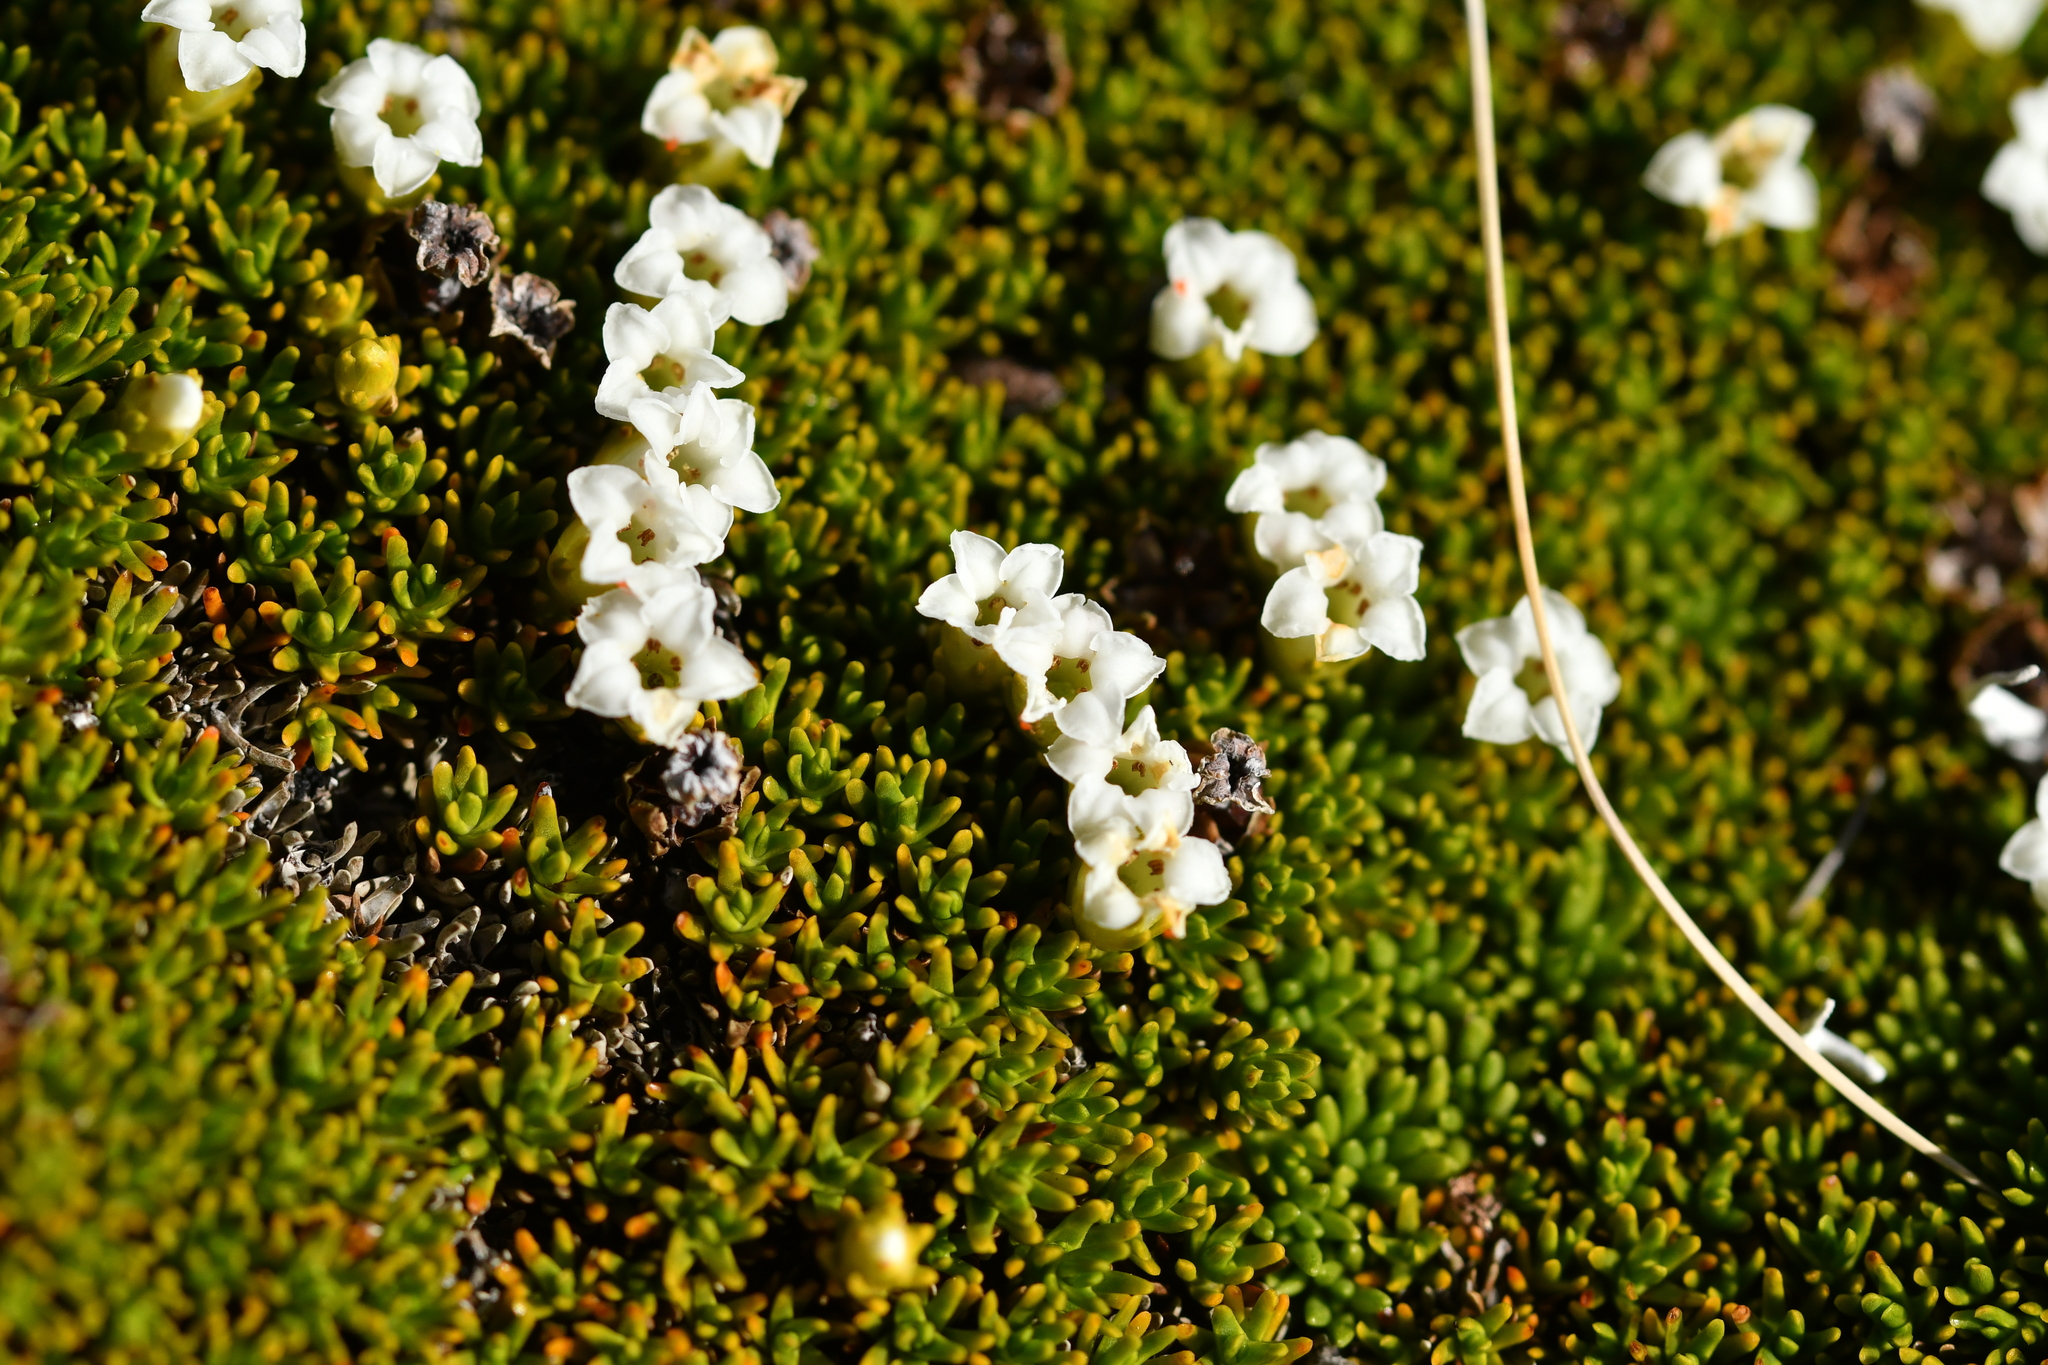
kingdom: Plantae
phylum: Tracheophyta
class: Magnoliopsida
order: Ericales
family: Ericaceae
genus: Dracophyllum
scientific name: Dracophyllum muscoides
